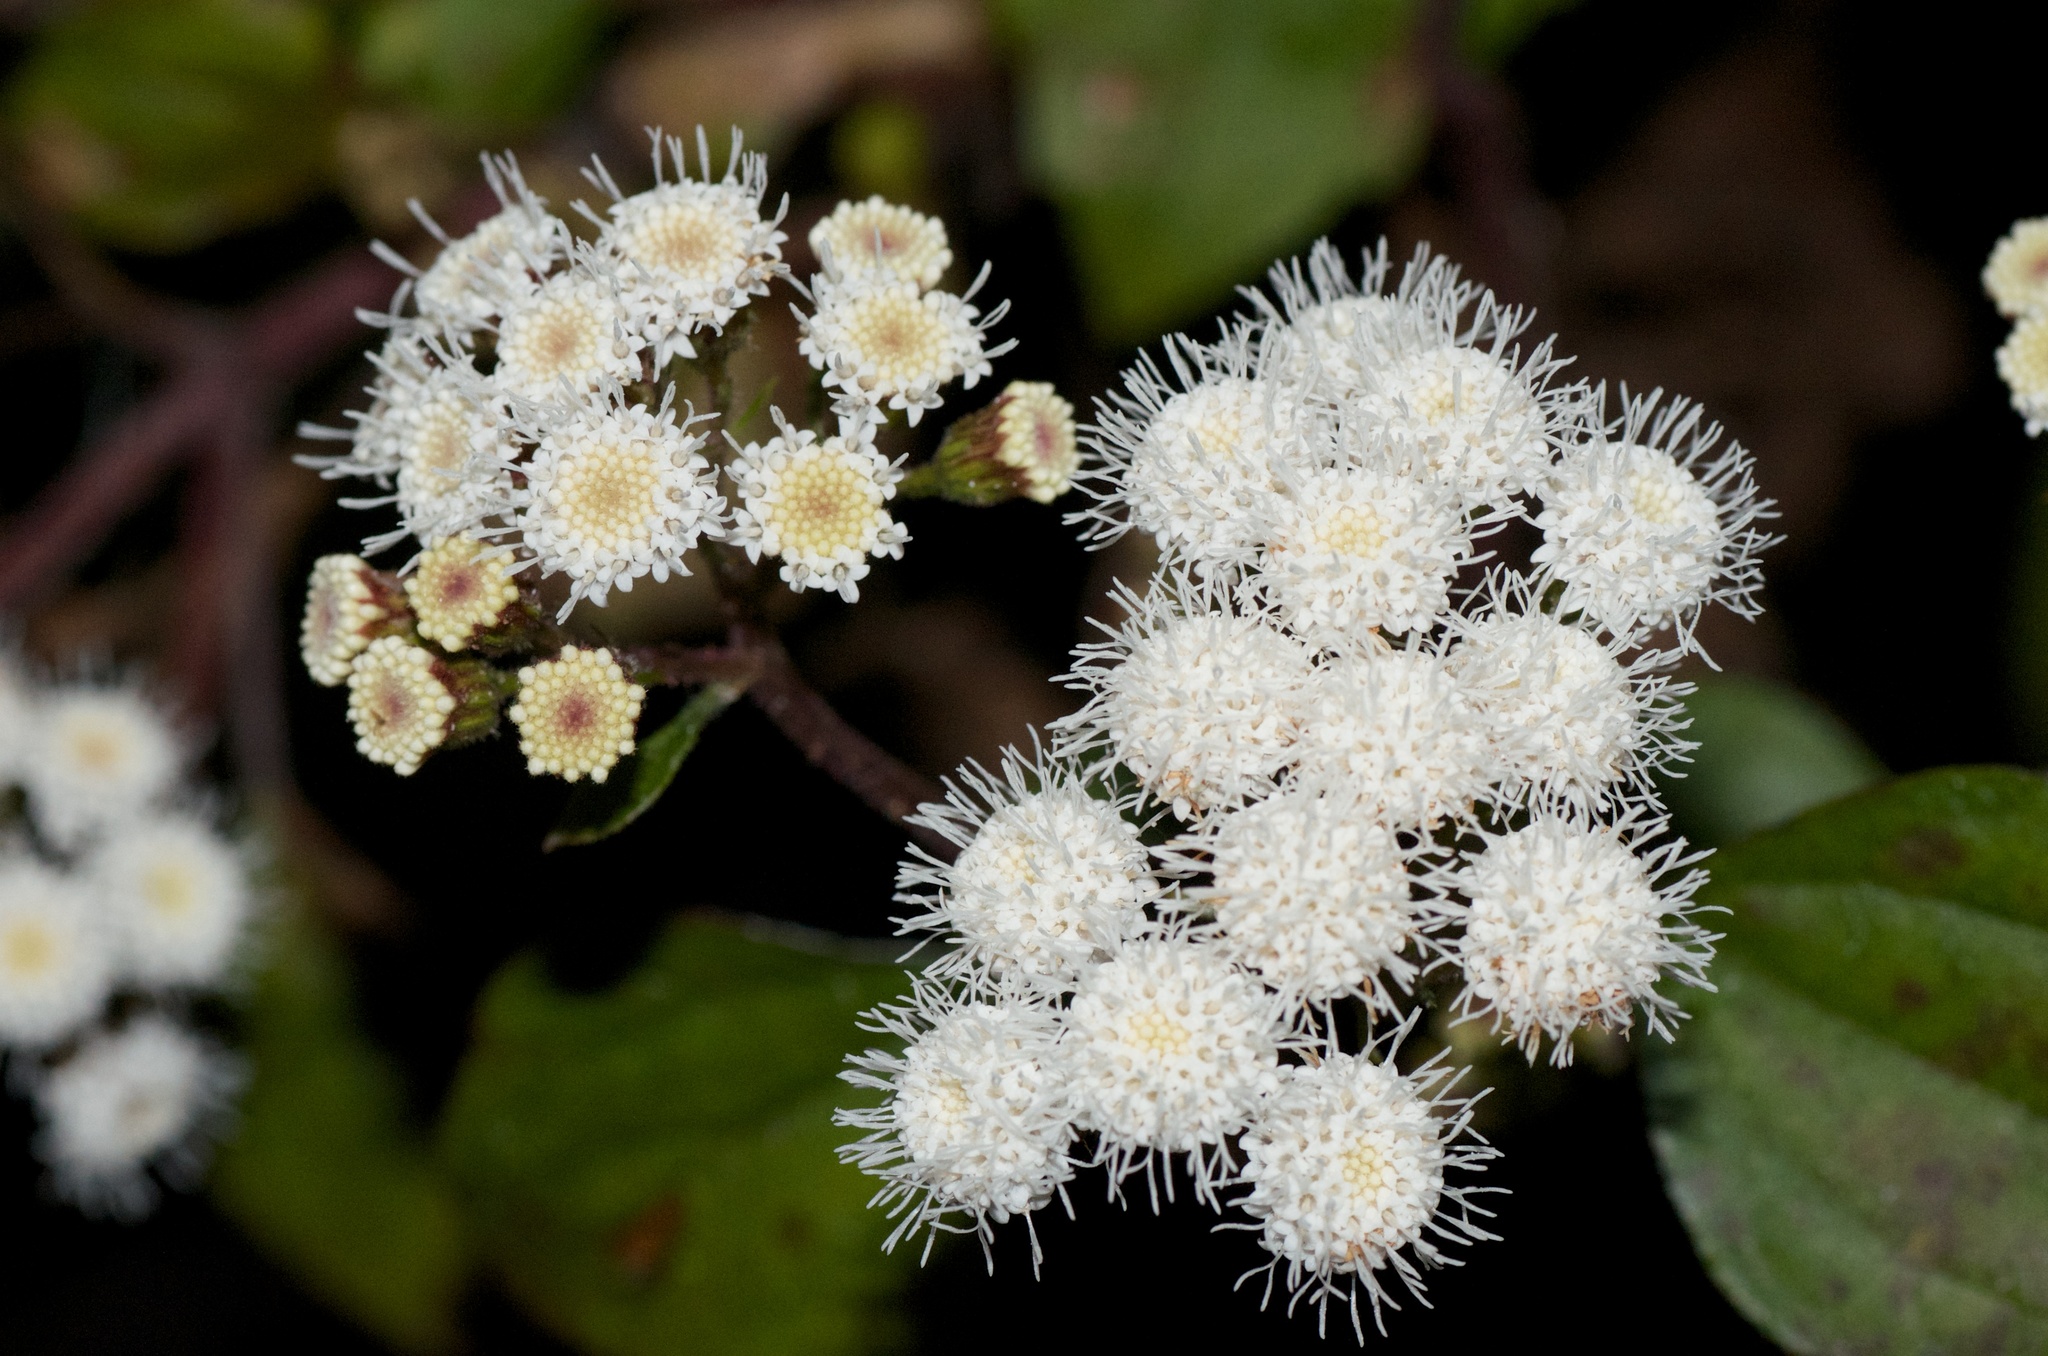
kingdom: Plantae
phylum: Tracheophyta
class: Magnoliopsida
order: Asterales
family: Asteraceae
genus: Ageratina
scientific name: Ageratina adenophora
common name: Sticky snakeroot
